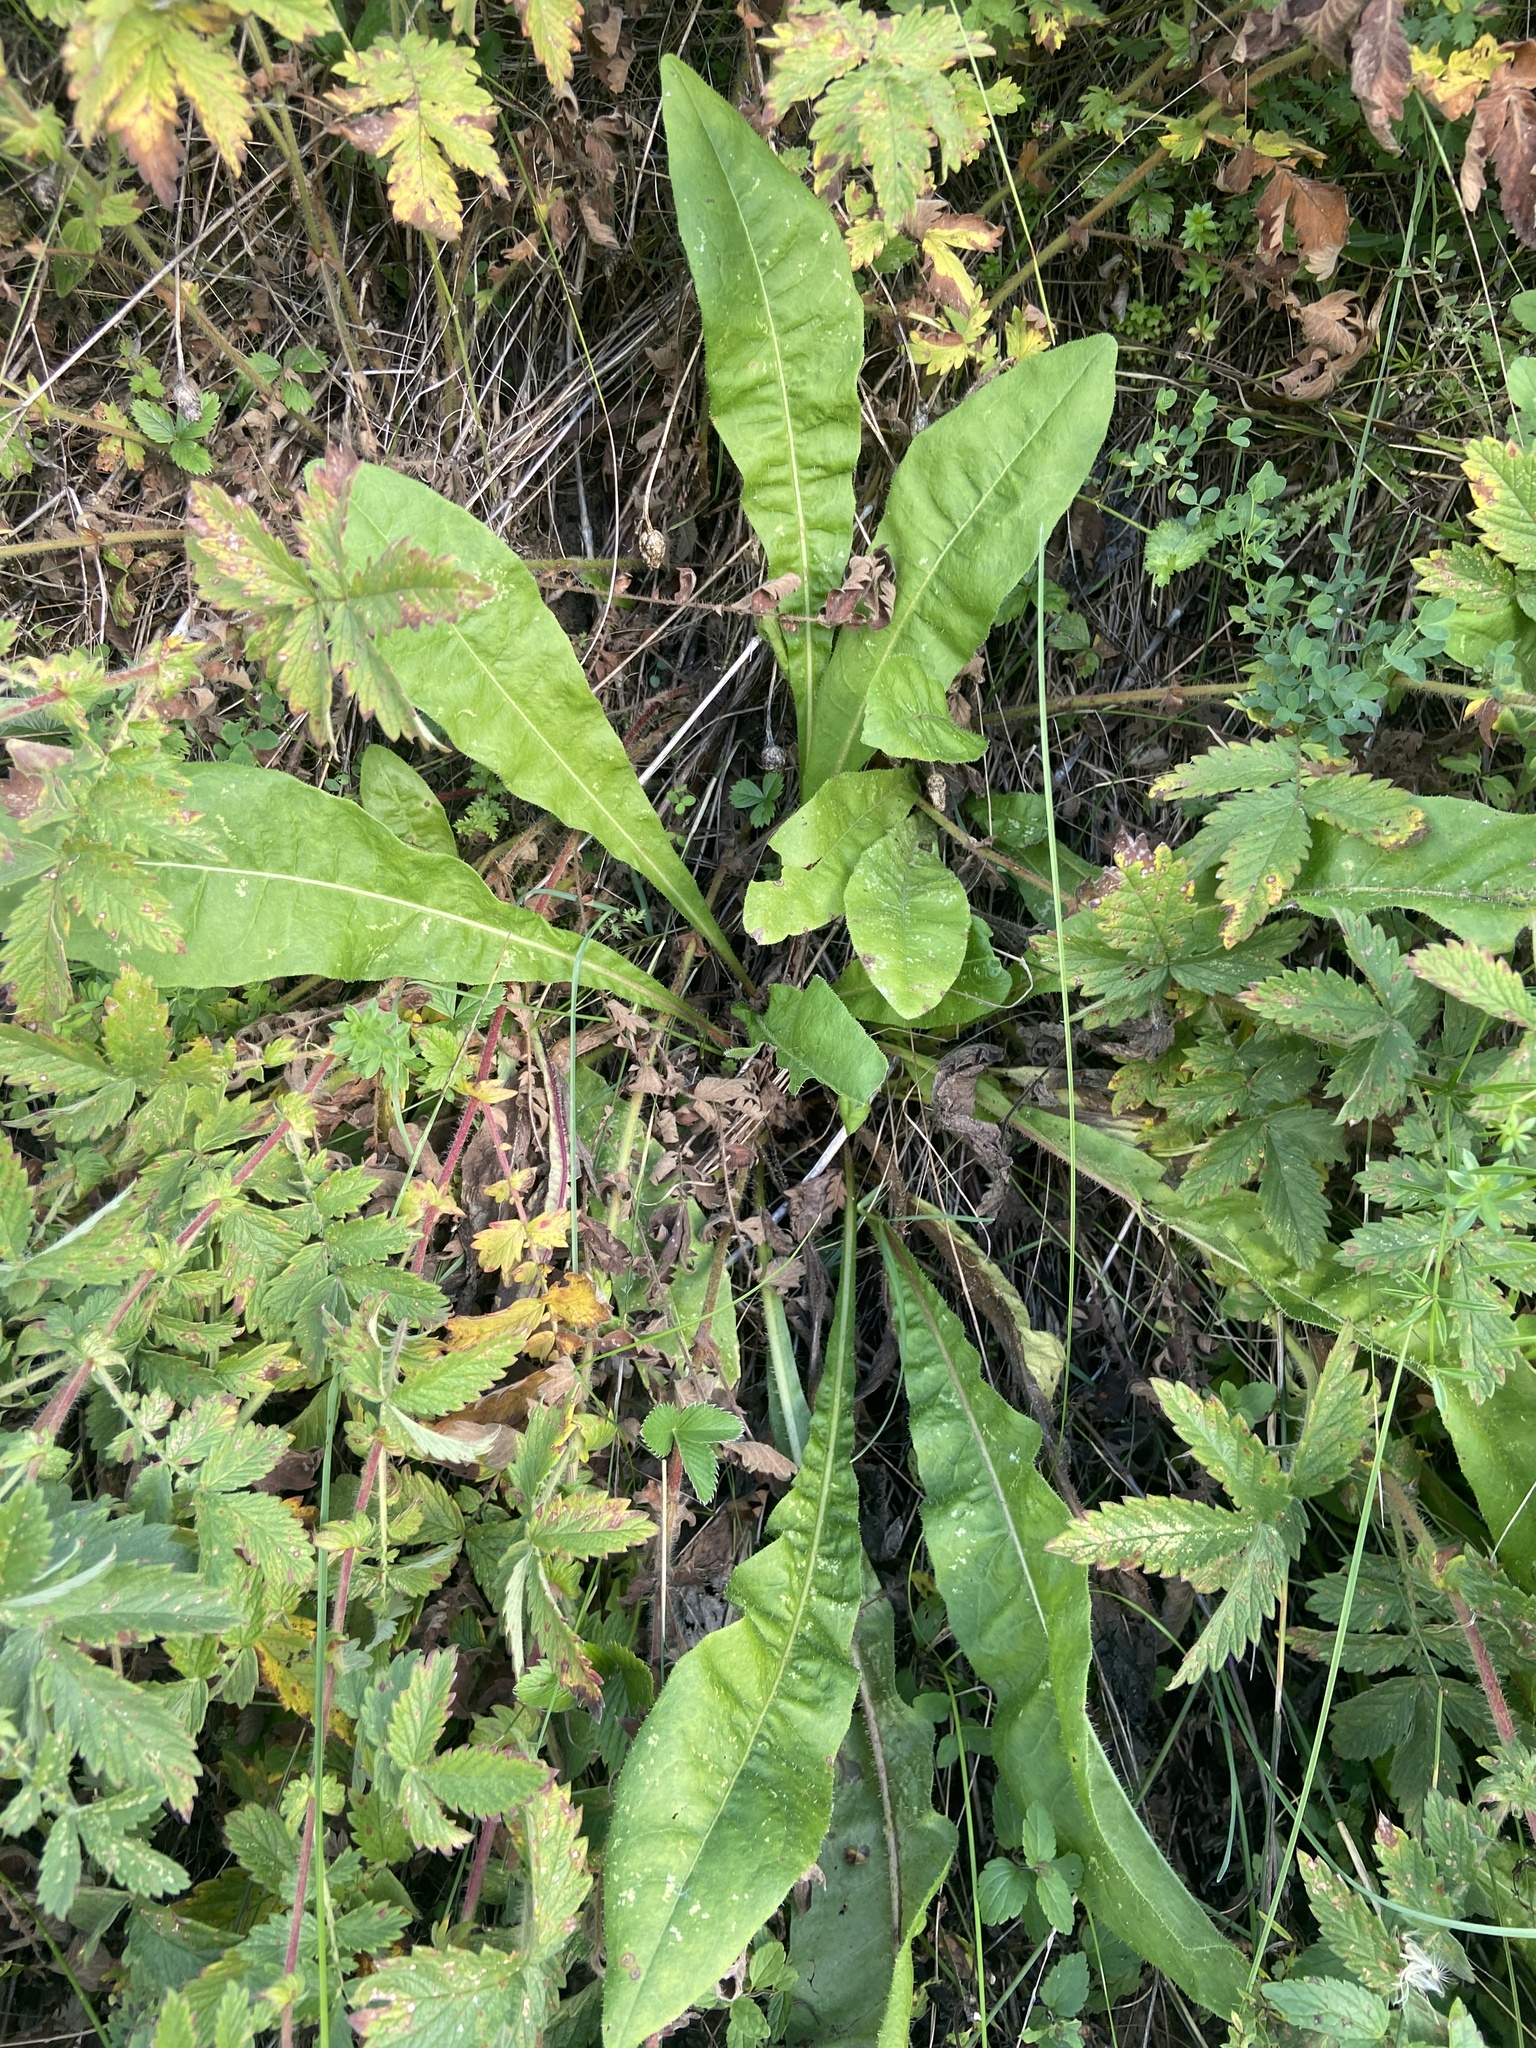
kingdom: Plantae
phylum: Tracheophyta
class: Magnoliopsida
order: Asterales
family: Asteraceae
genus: Picris
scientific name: Picris hieracioides
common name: Hawkweed oxtongue
